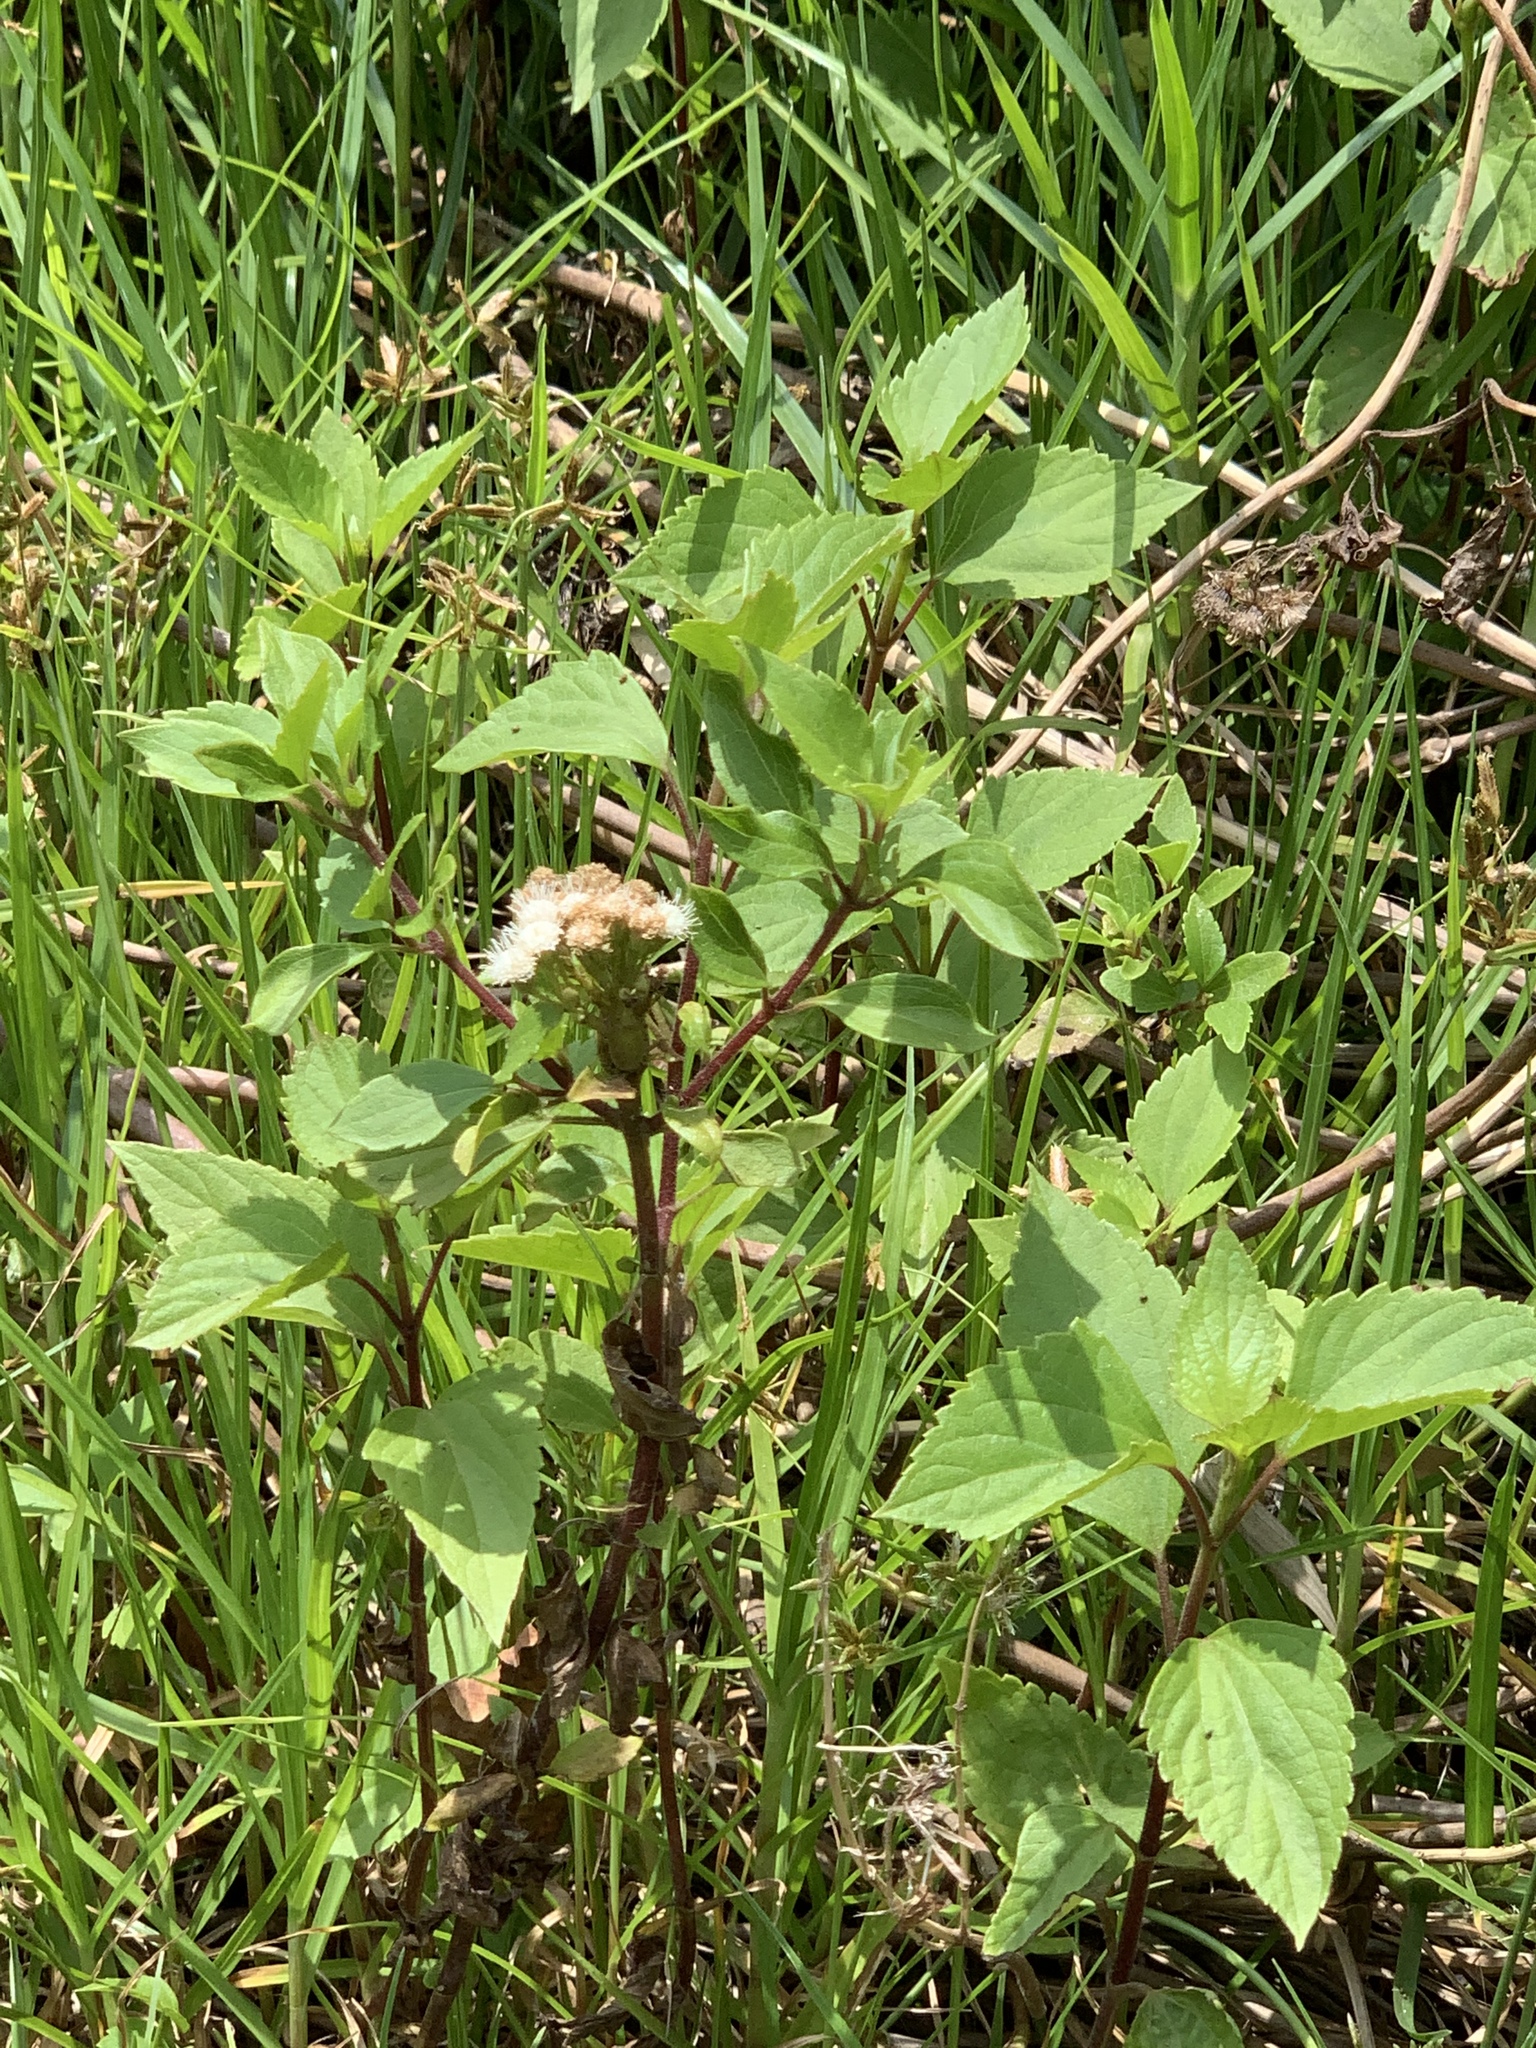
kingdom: Plantae
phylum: Tracheophyta
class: Magnoliopsida
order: Asterales
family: Asteraceae
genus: Ageratina
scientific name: Ageratina adenophora
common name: Sticky snakeroot
